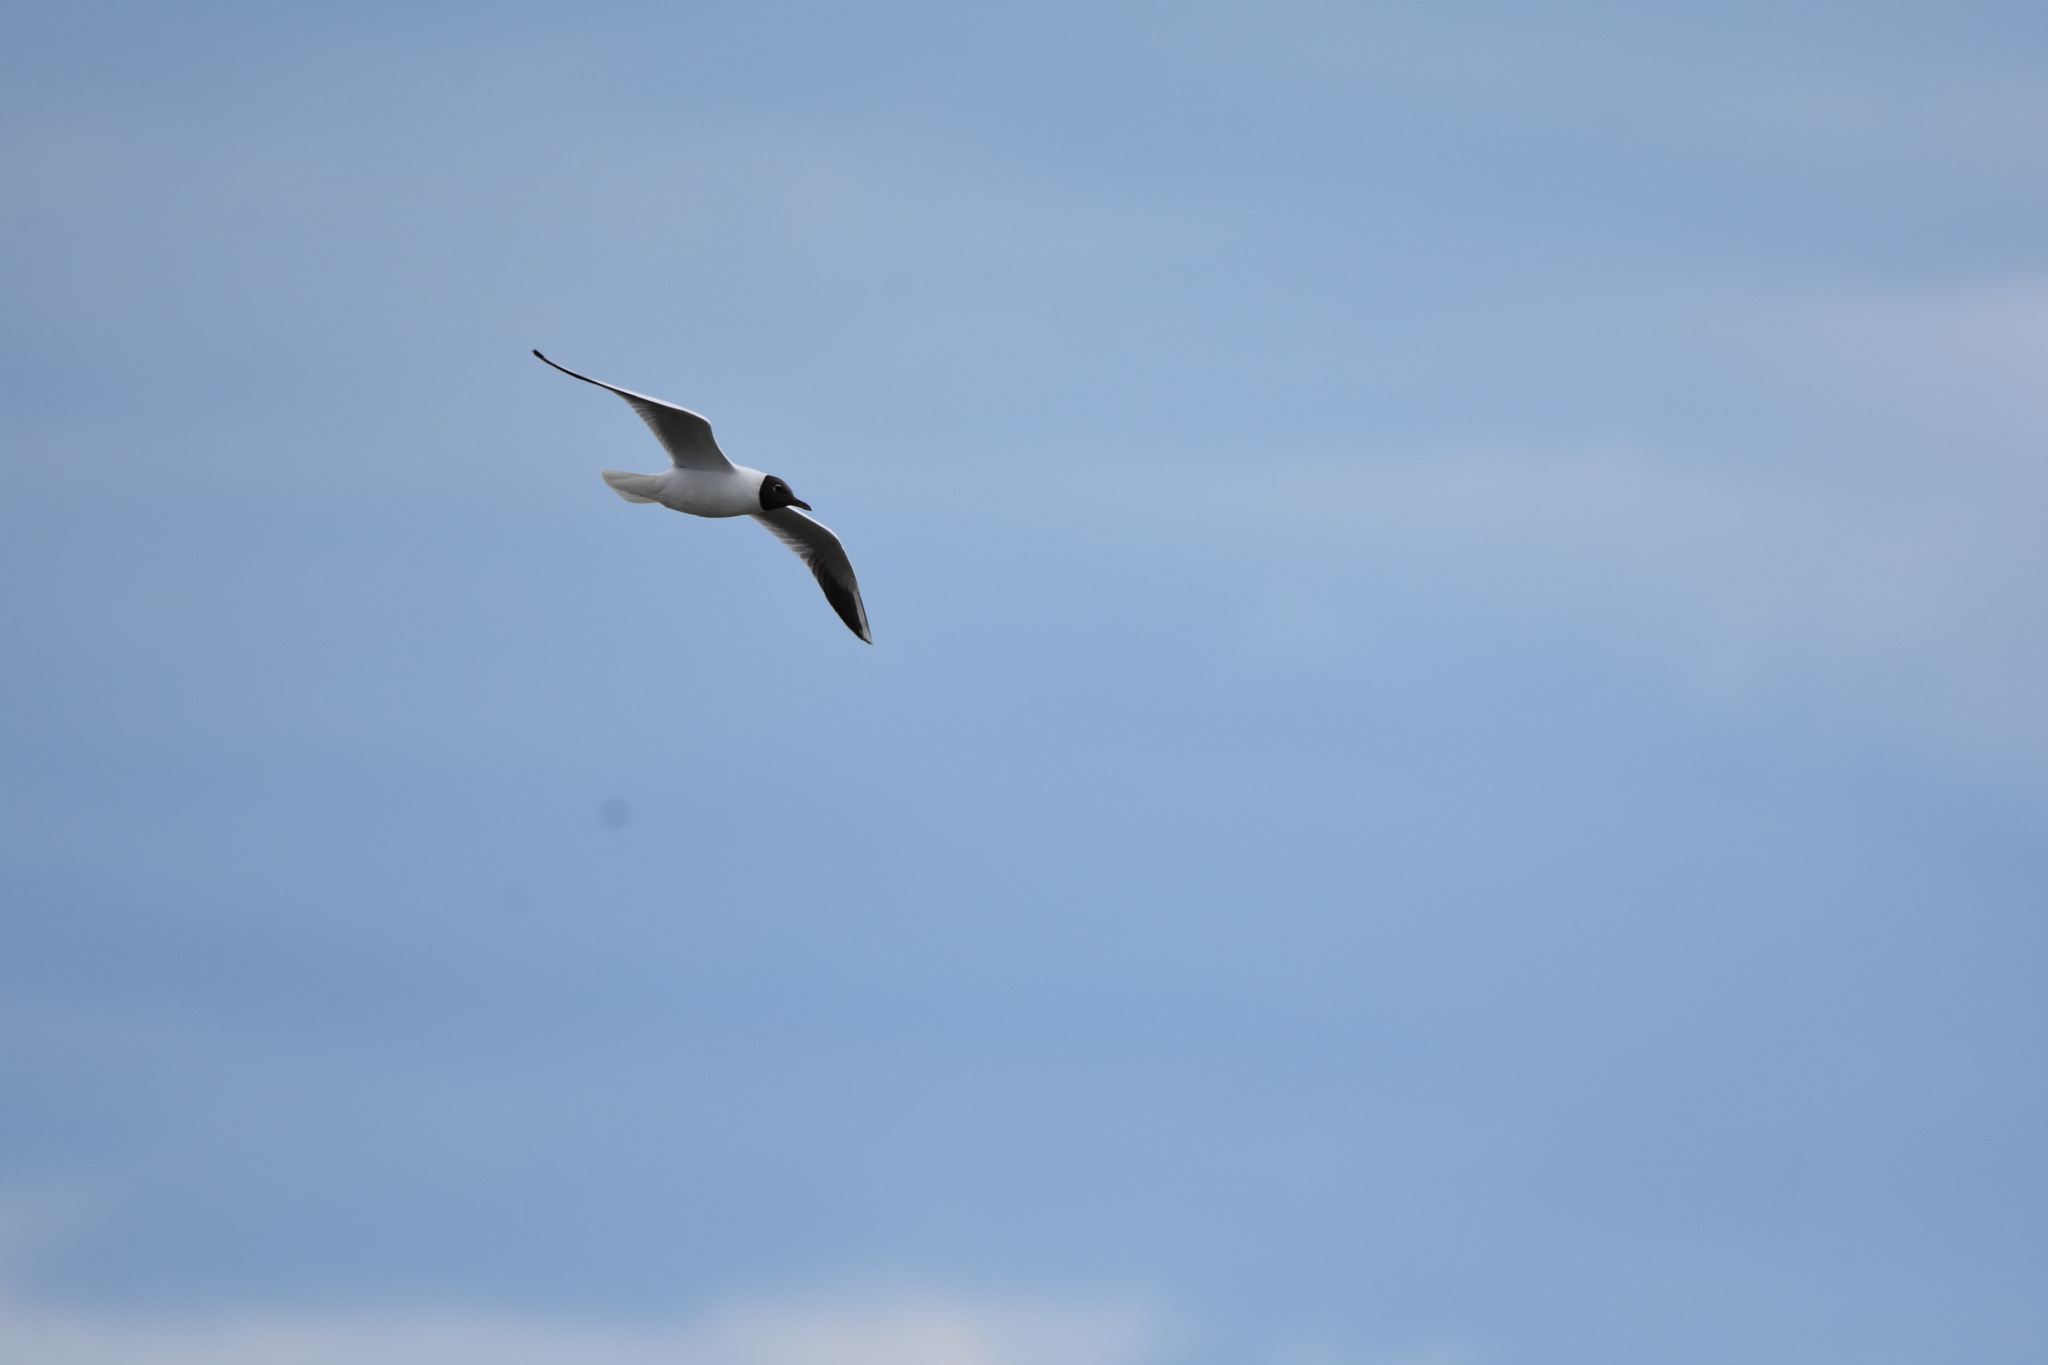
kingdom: Animalia
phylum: Chordata
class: Aves
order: Charadriiformes
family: Laridae
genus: Chroicocephalus
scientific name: Chroicocephalus ridibundus
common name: Black-headed gull
